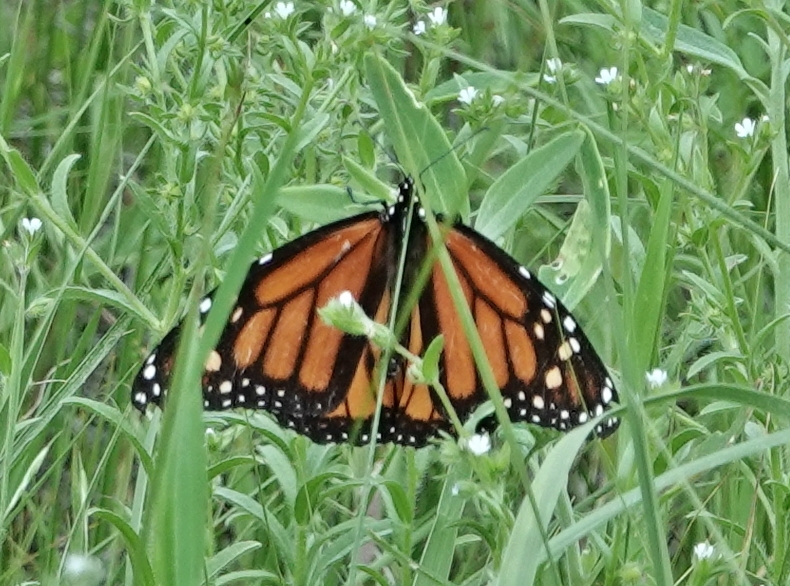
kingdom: Animalia
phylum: Arthropoda
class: Insecta
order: Lepidoptera
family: Nymphalidae
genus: Danaus
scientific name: Danaus plexippus
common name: Monarch
